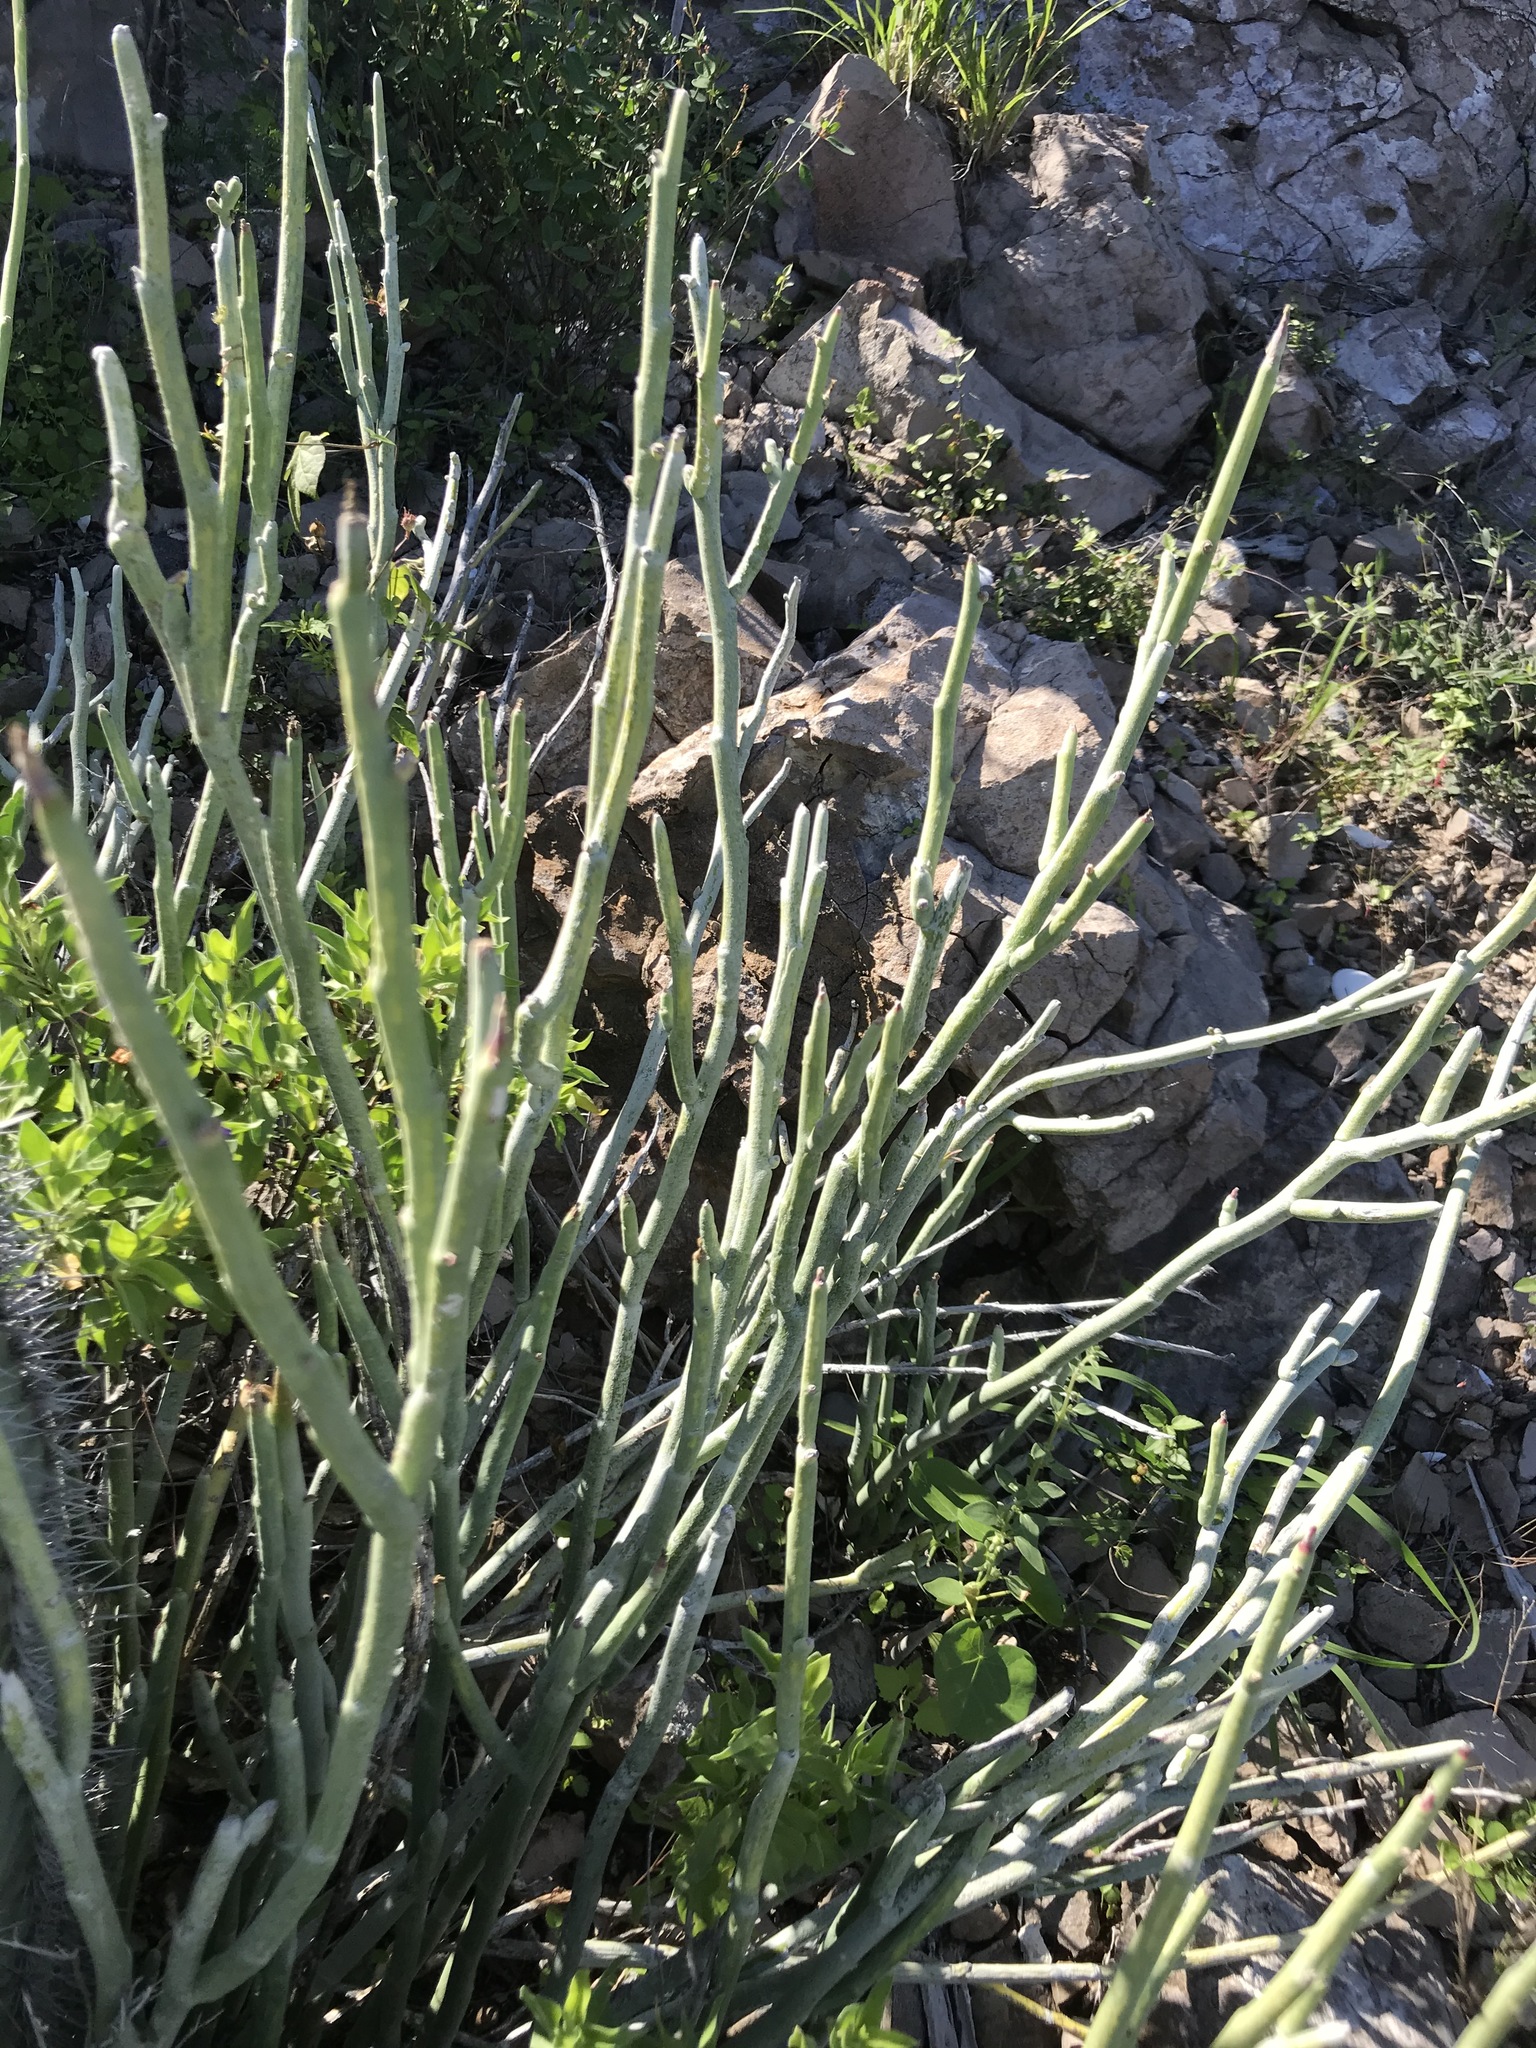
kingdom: Plantae
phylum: Tracheophyta
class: Magnoliopsida
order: Malpighiales
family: Euphorbiaceae
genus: Euphorbia
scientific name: Euphorbia lomelii
